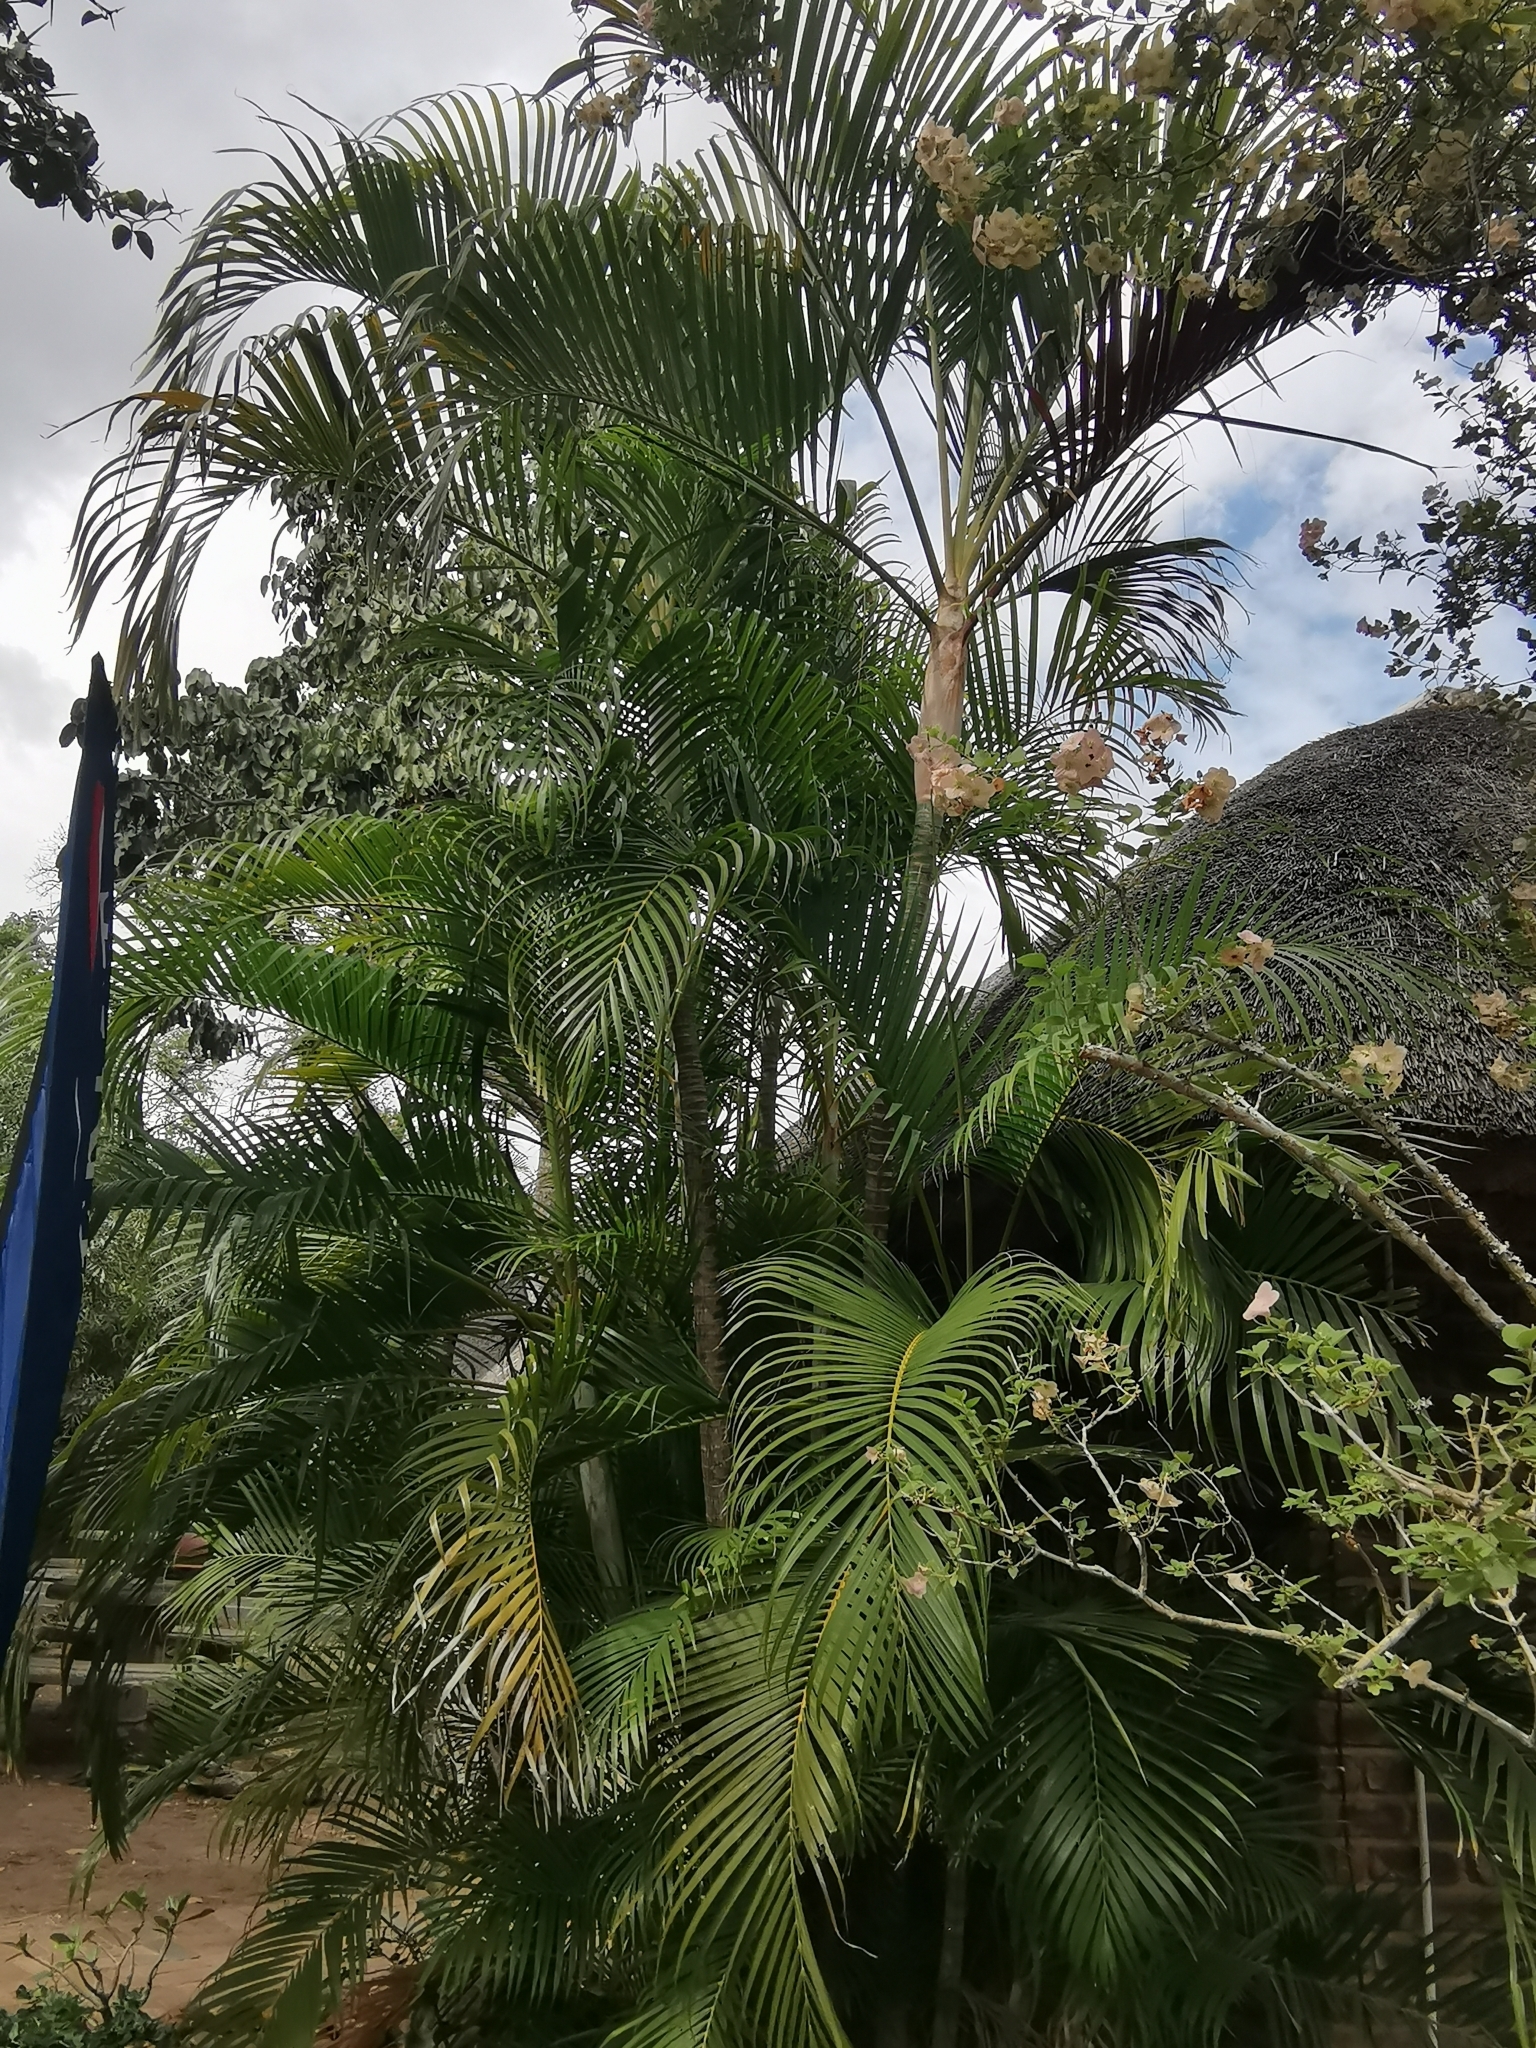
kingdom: Plantae
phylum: Tracheophyta
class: Liliopsida
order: Arecales
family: Arecaceae
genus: Dypsis
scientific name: Dypsis lutescens
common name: Yellow butterfly palm
